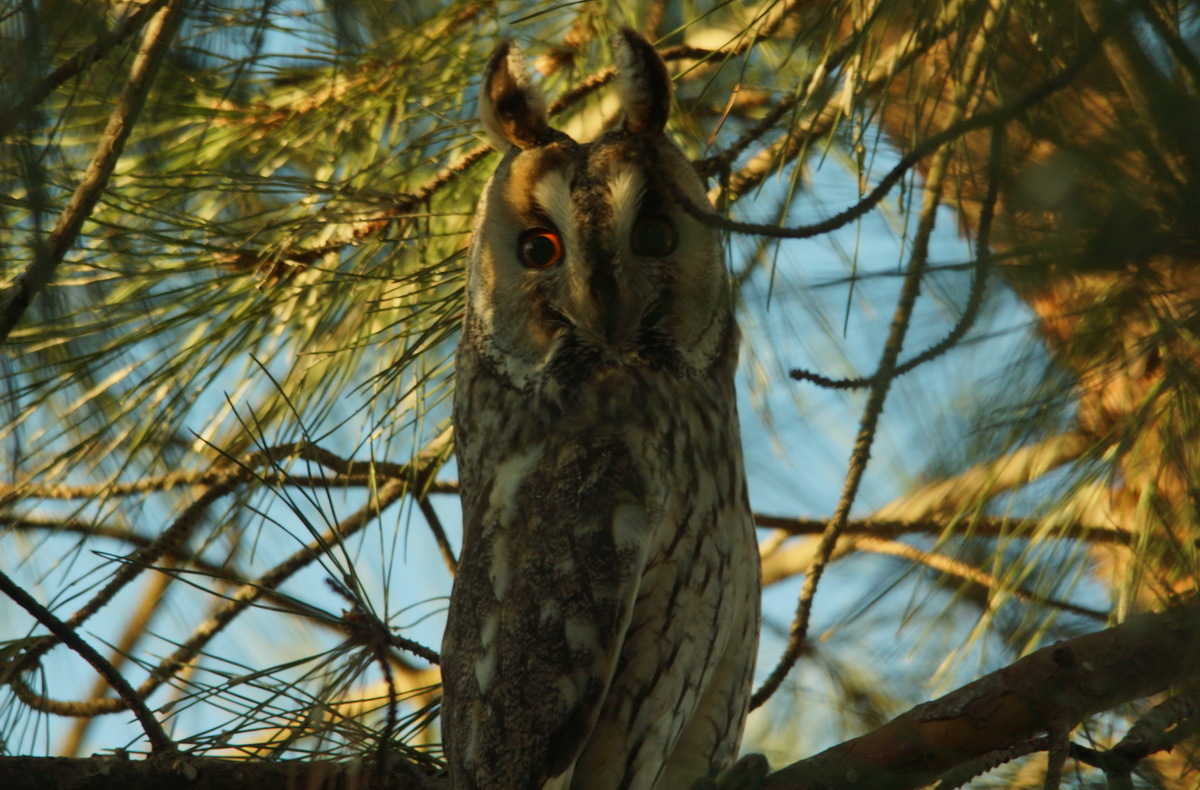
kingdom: Animalia
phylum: Chordata
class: Aves
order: Strigiformes
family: Strigidae
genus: Asio
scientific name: Asio otus
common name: Long-eared owl
